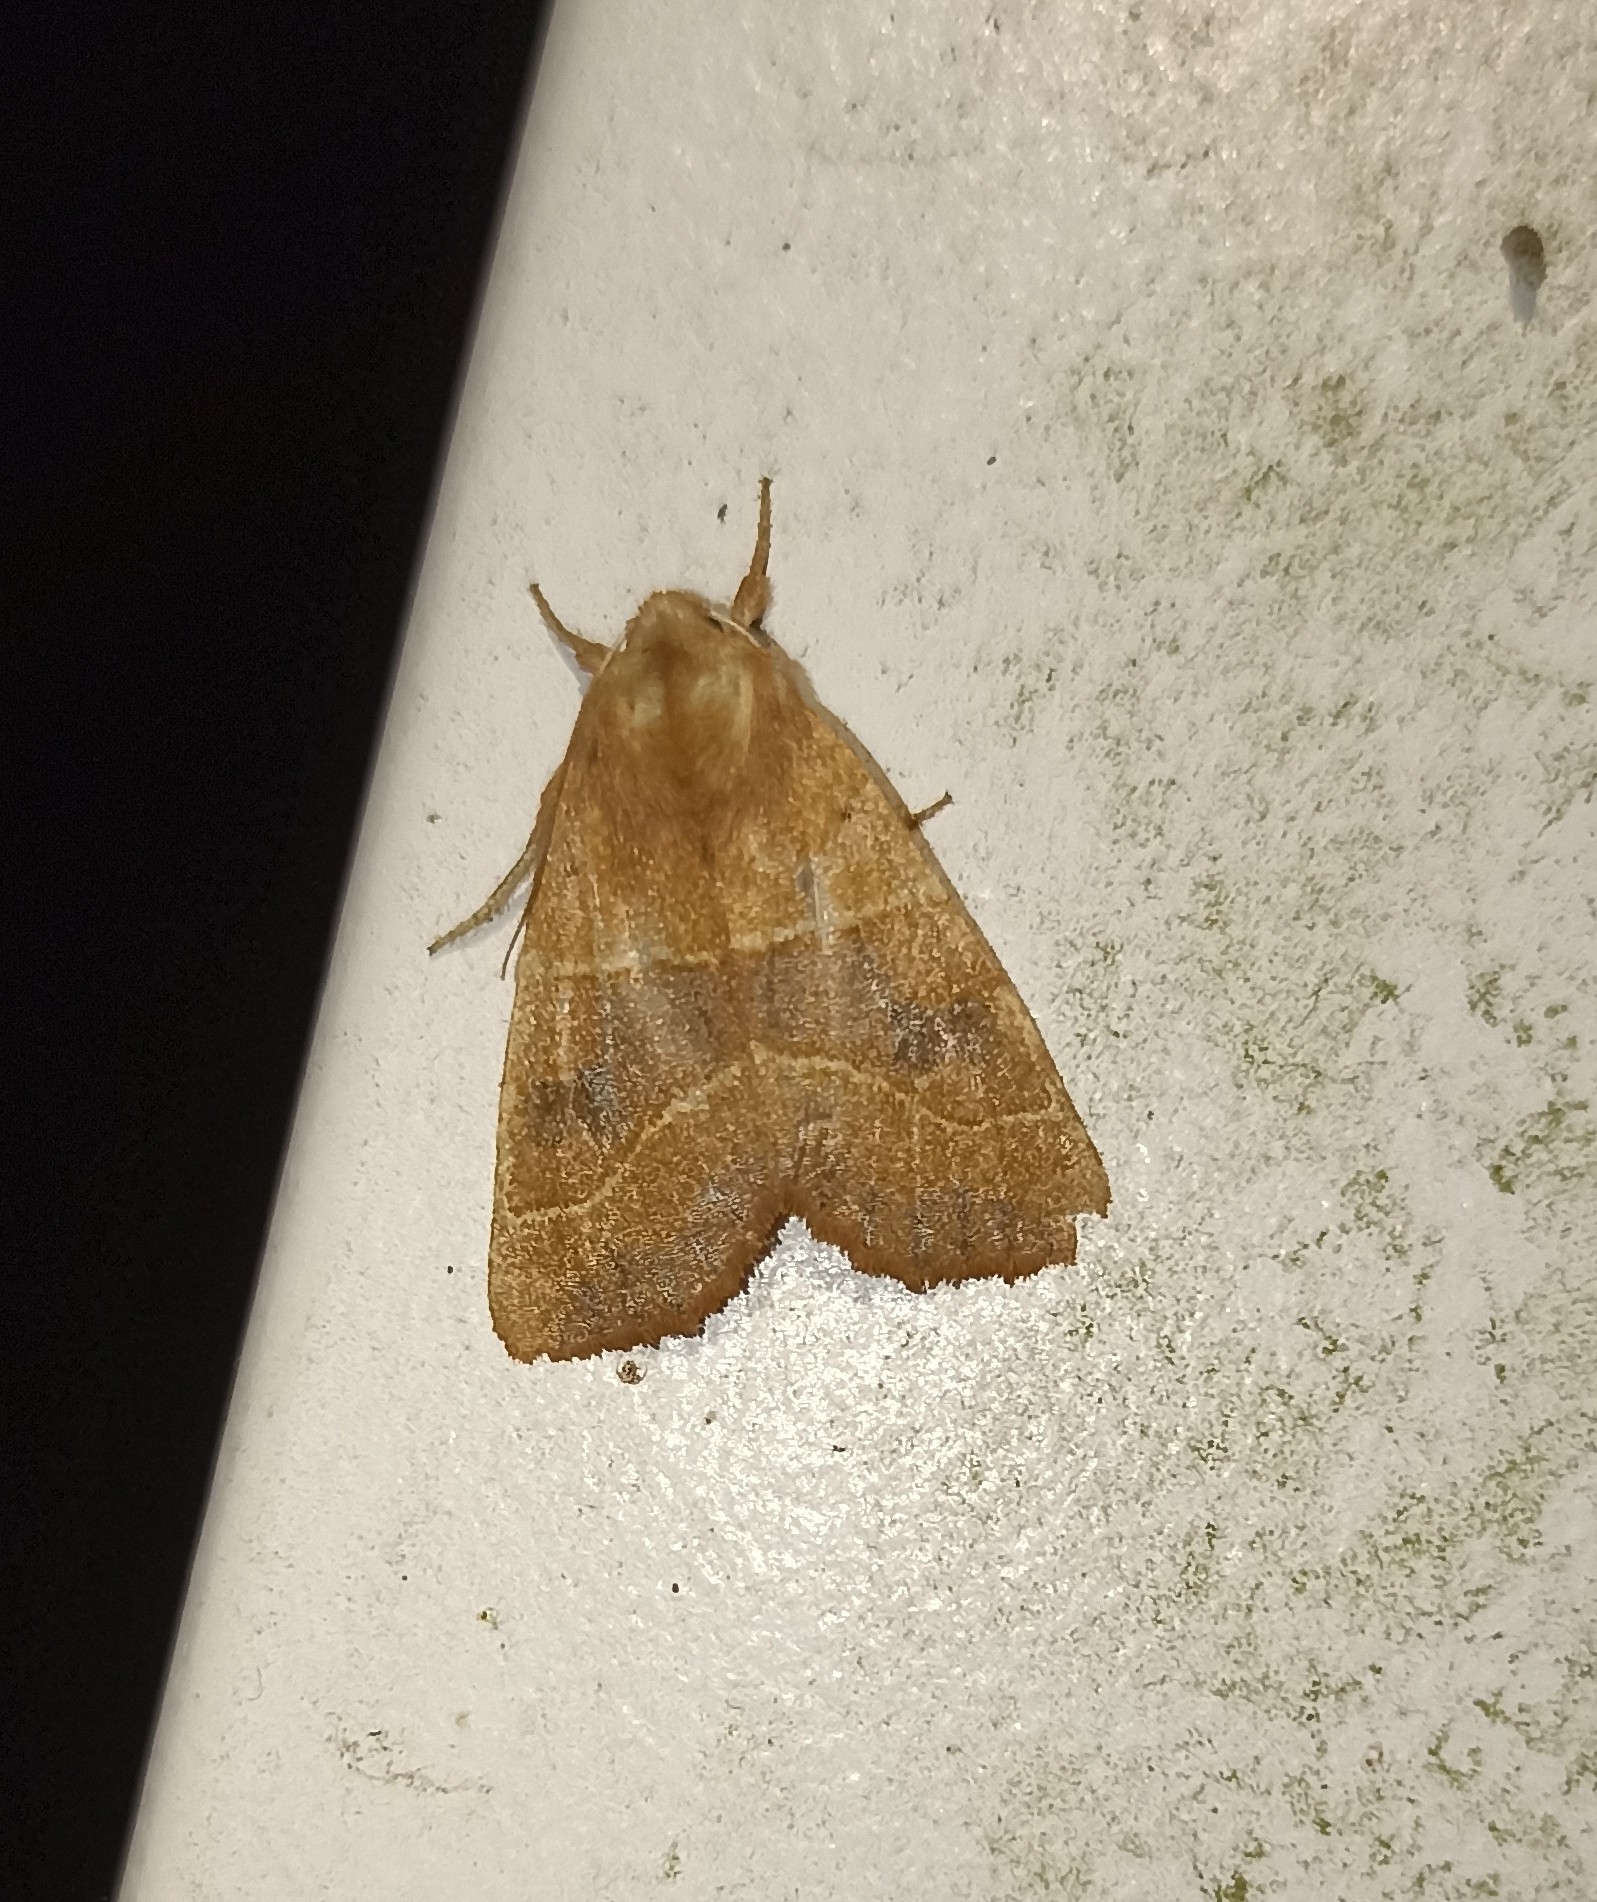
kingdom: Animalia
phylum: Arthropoda
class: Insecta
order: Lepidoptera
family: Noctuidae
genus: Atethmia
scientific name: Atethmia centrago
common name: Centre-barred sallow
